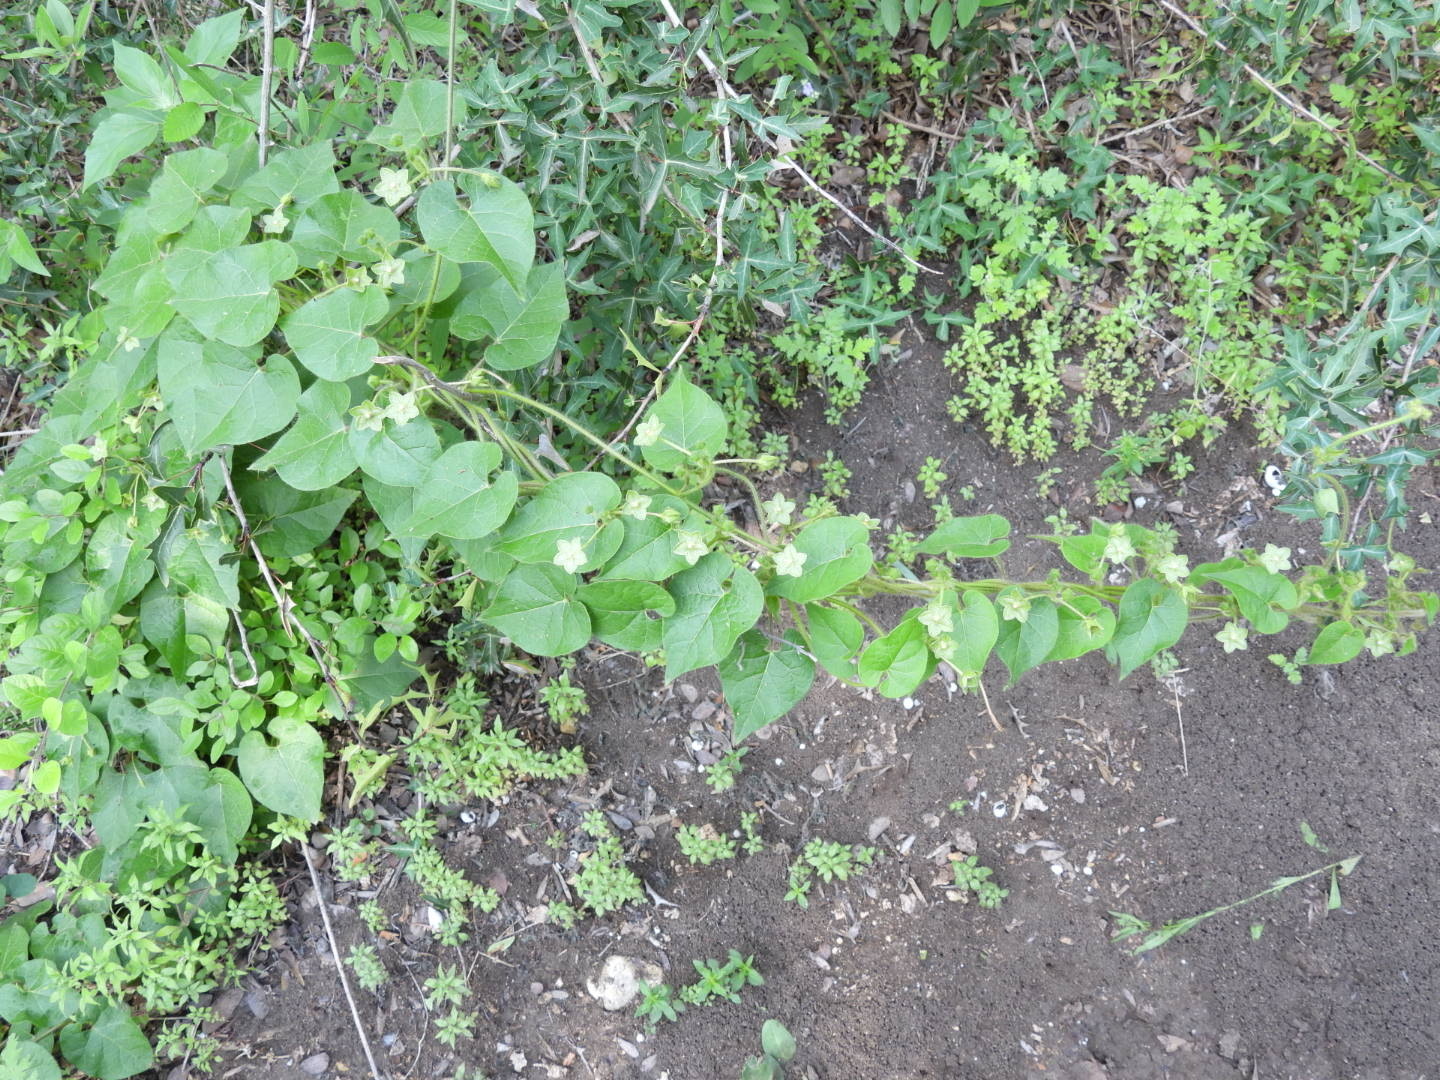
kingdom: Plantae
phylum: Tracheophyta
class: Magnoliopsida
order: Gentianales
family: Apocynaceae
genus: Dictyanthus
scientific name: Dictyanthus reticulatus
